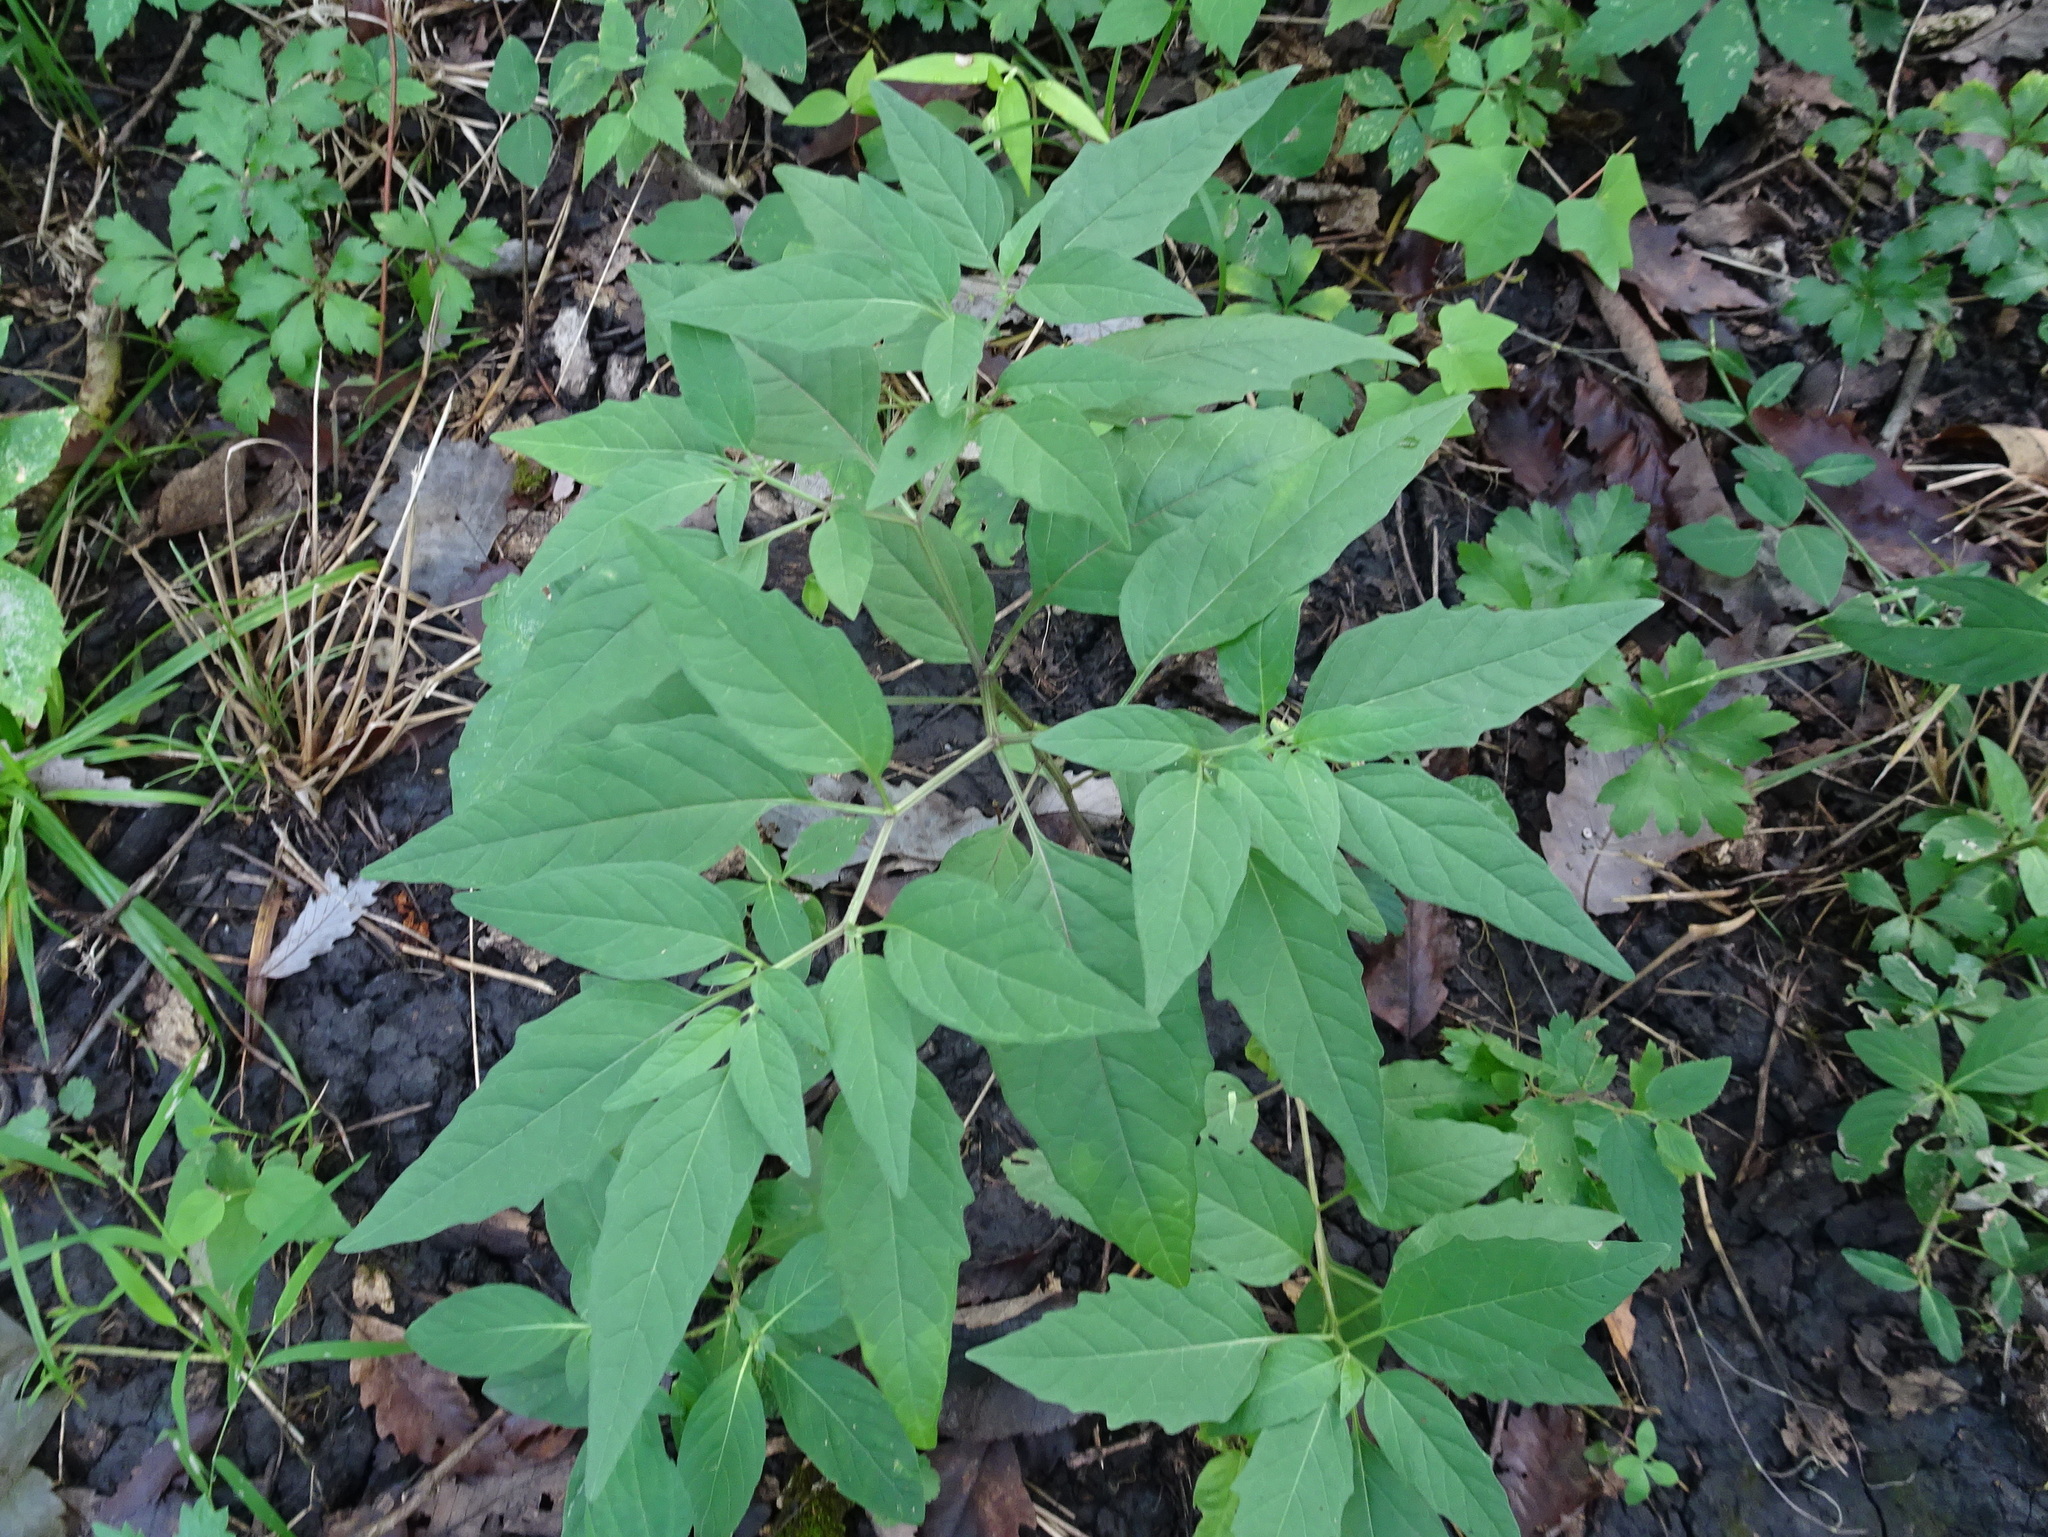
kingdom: Plantae
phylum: Tracheophyta
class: Magnoliopsida
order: Solanales
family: Solanaceae
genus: Physalis
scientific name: Physalis longifolia
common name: Common ground-cherry
